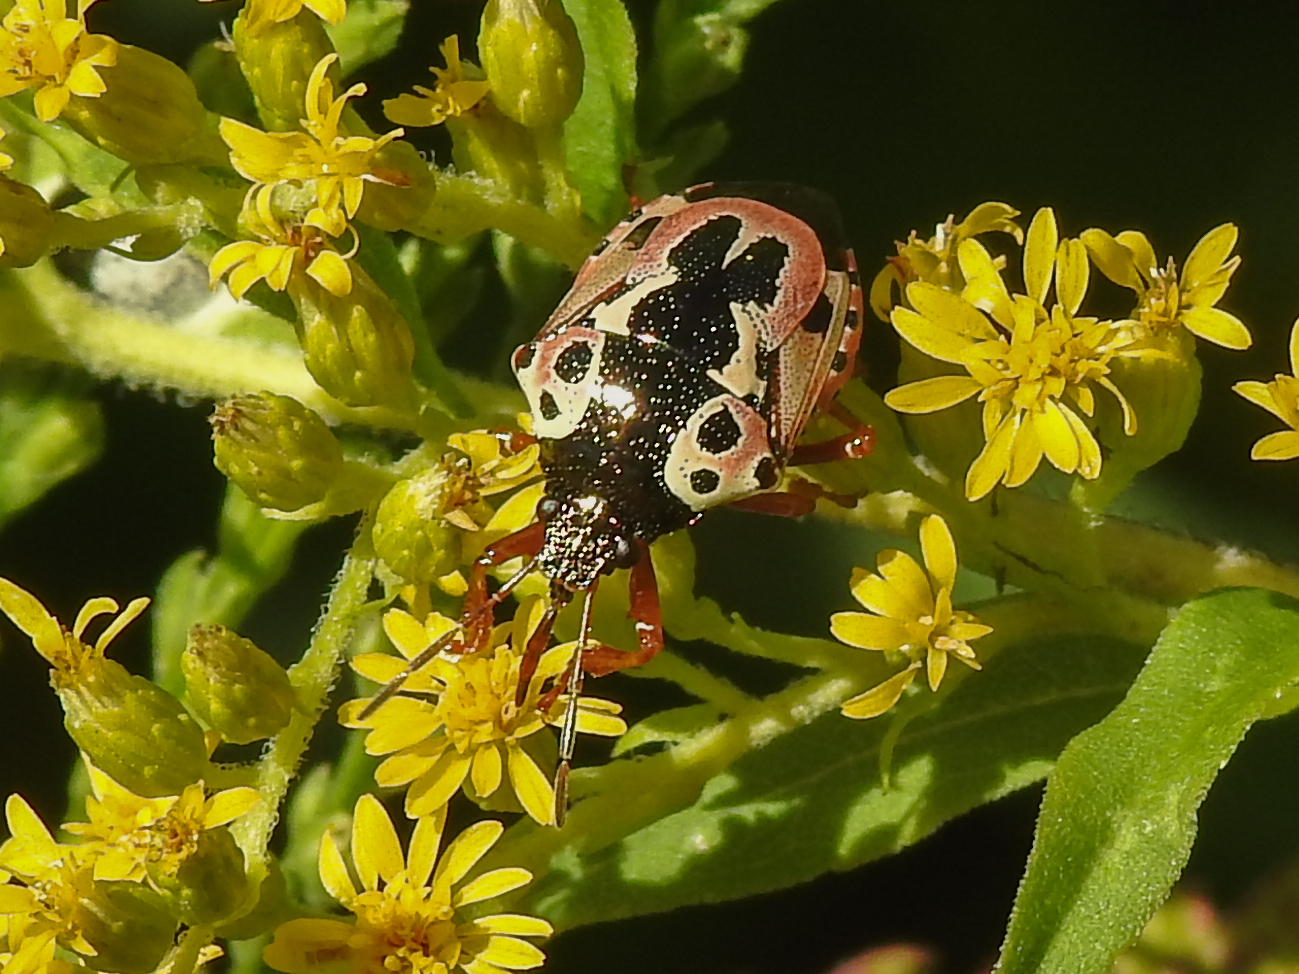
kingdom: Animalia
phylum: Arthropoda
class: Insecta
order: Hemiptera
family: Pentatomidae
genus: Stiretrus
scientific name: Stiretrus anchorago
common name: Anchor stink bug
